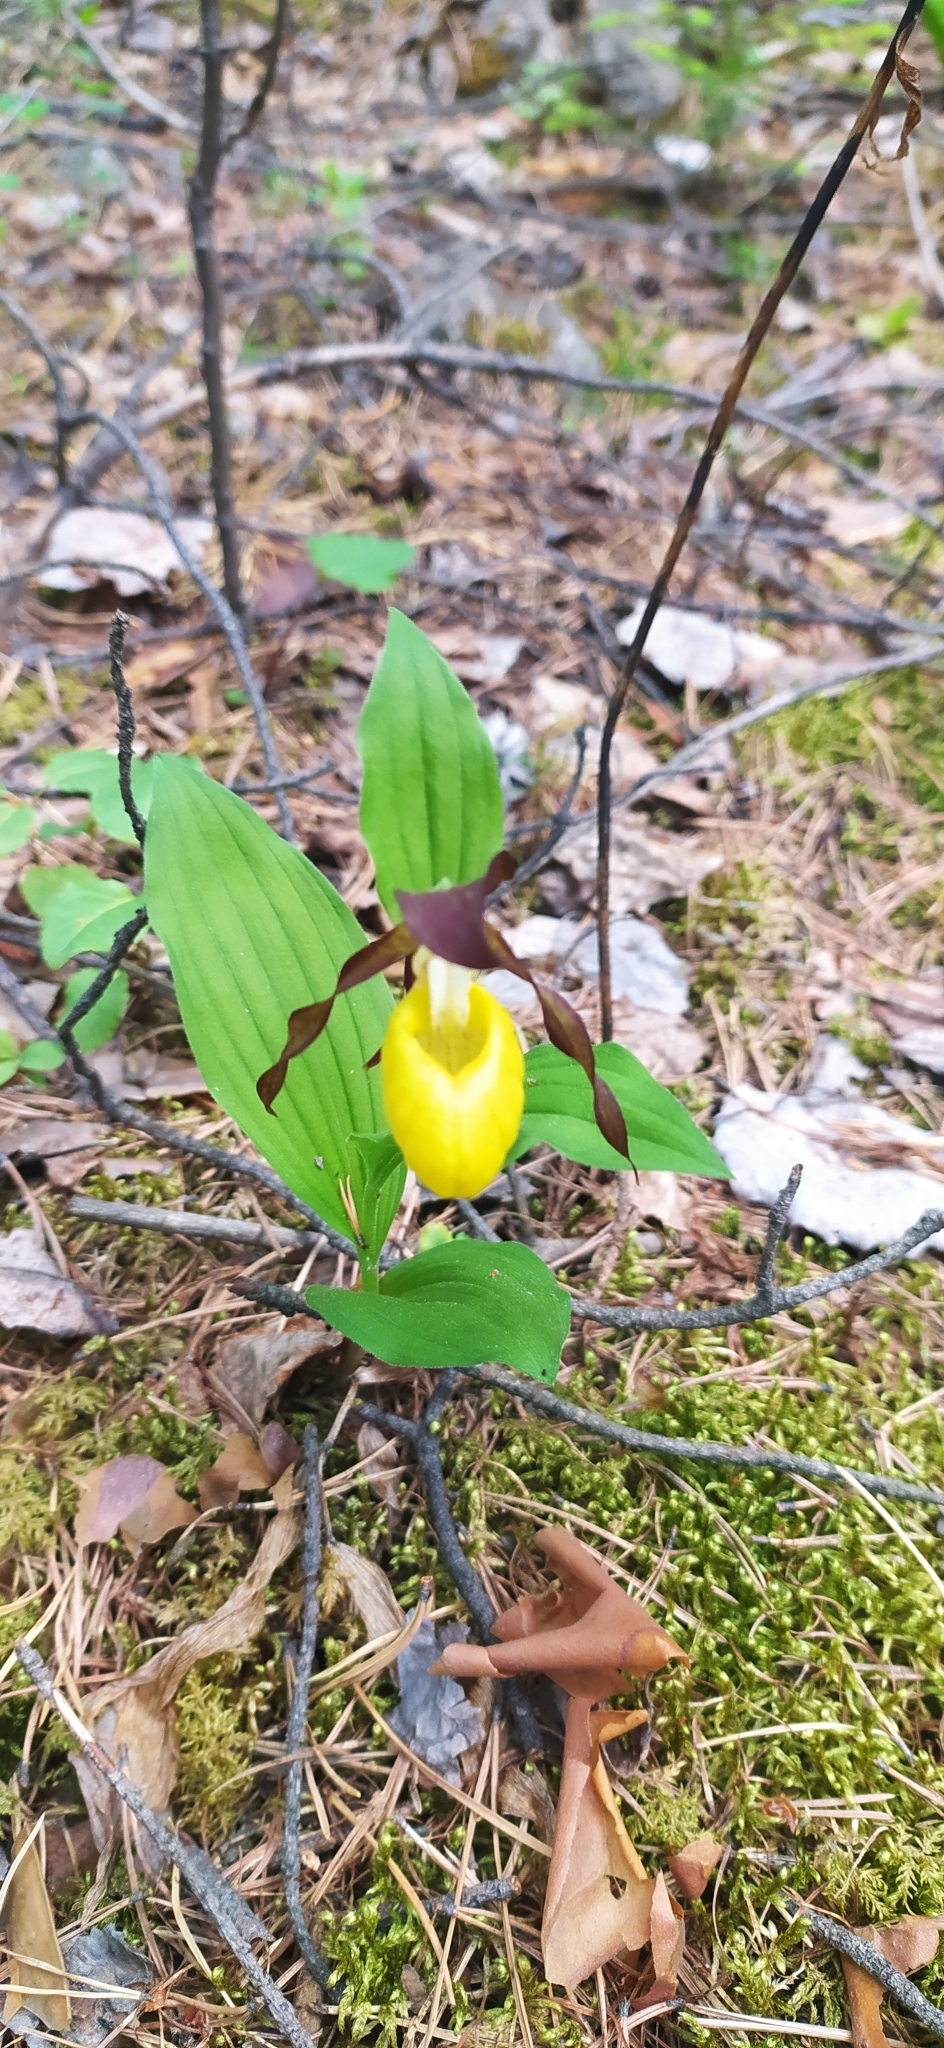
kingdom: Plantae
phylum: Tracheophyta
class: Liliopsida
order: Asparagales
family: Orchidaceae
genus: Cypripedium
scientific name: Cypripedium calceolus
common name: Lady's-slipper
